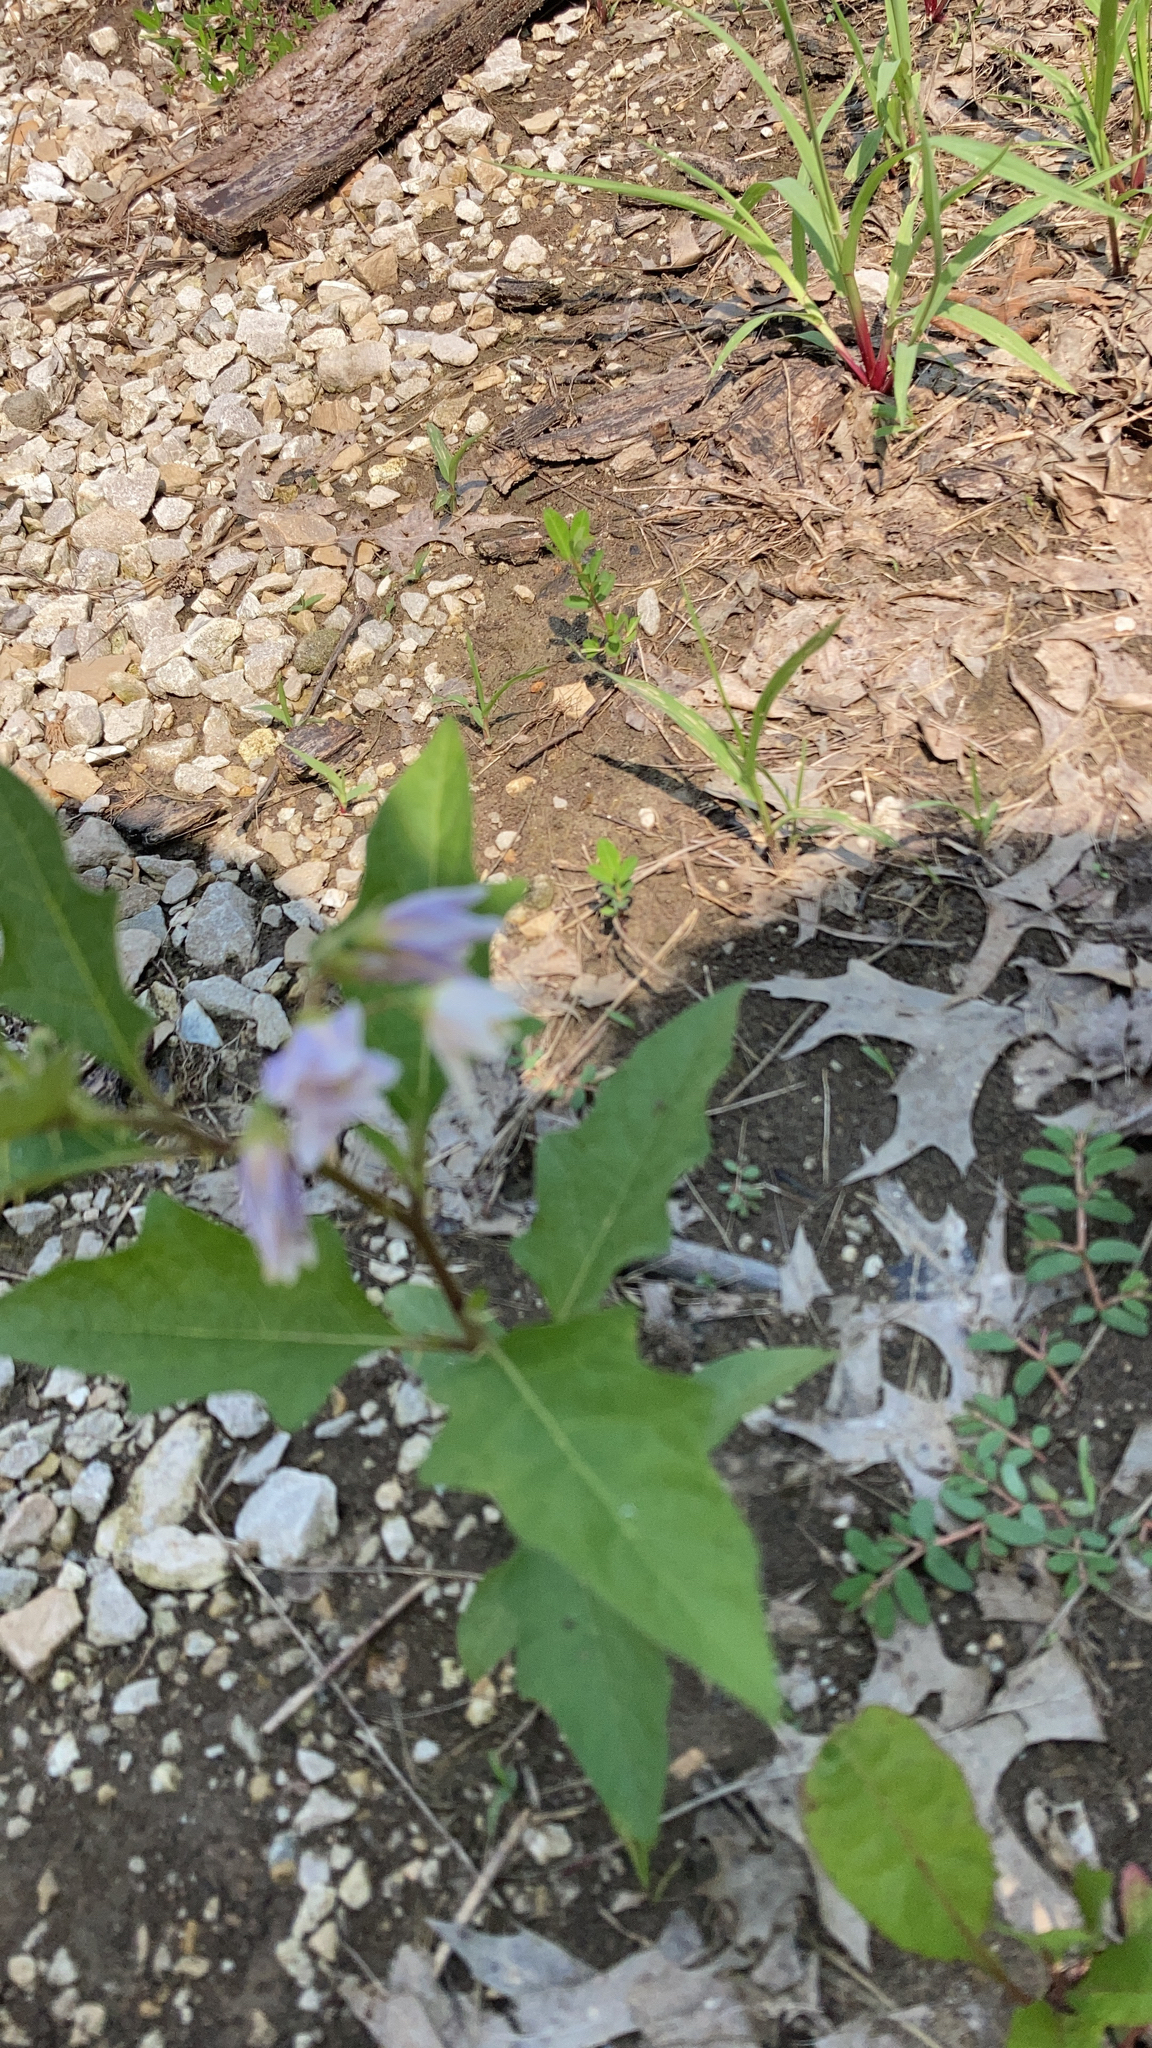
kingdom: Plantae
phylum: Tracheophyta
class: Magnoliopsida
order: Solanales
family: Solanaceae
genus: Solanum
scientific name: Solanum carolinense
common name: Horse-nettle
